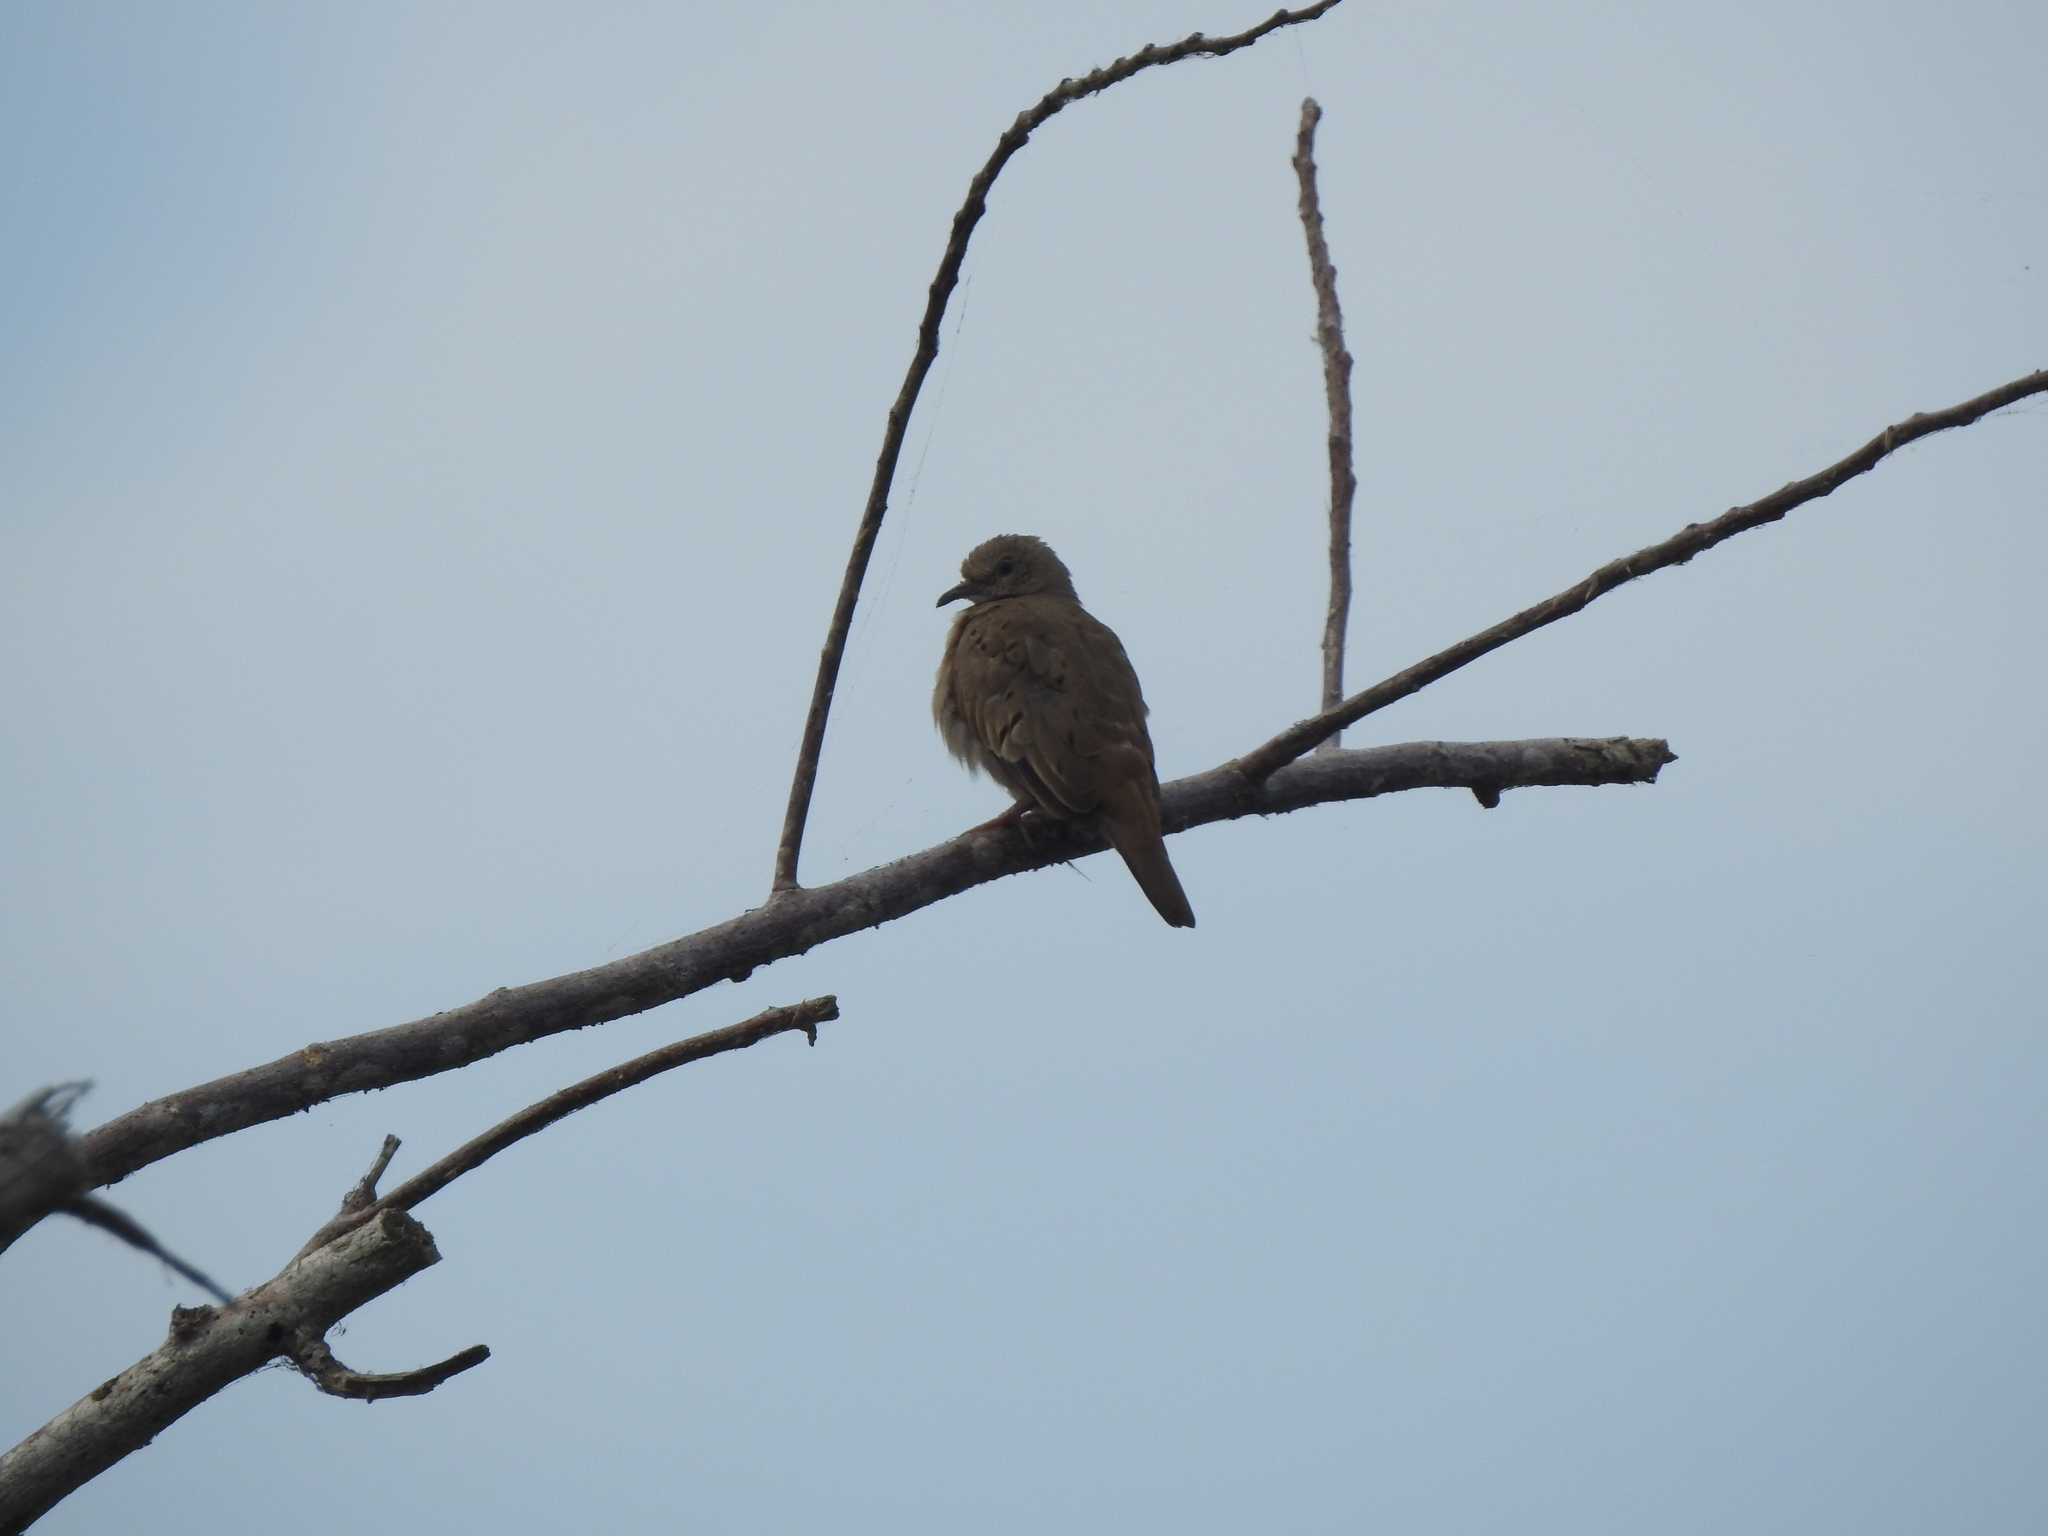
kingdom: Animalia
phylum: Chordata
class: Aves
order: Columbiformes
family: Columbidae
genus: Columbina
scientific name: Columbina talpacoti
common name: Ruddy ground dove
